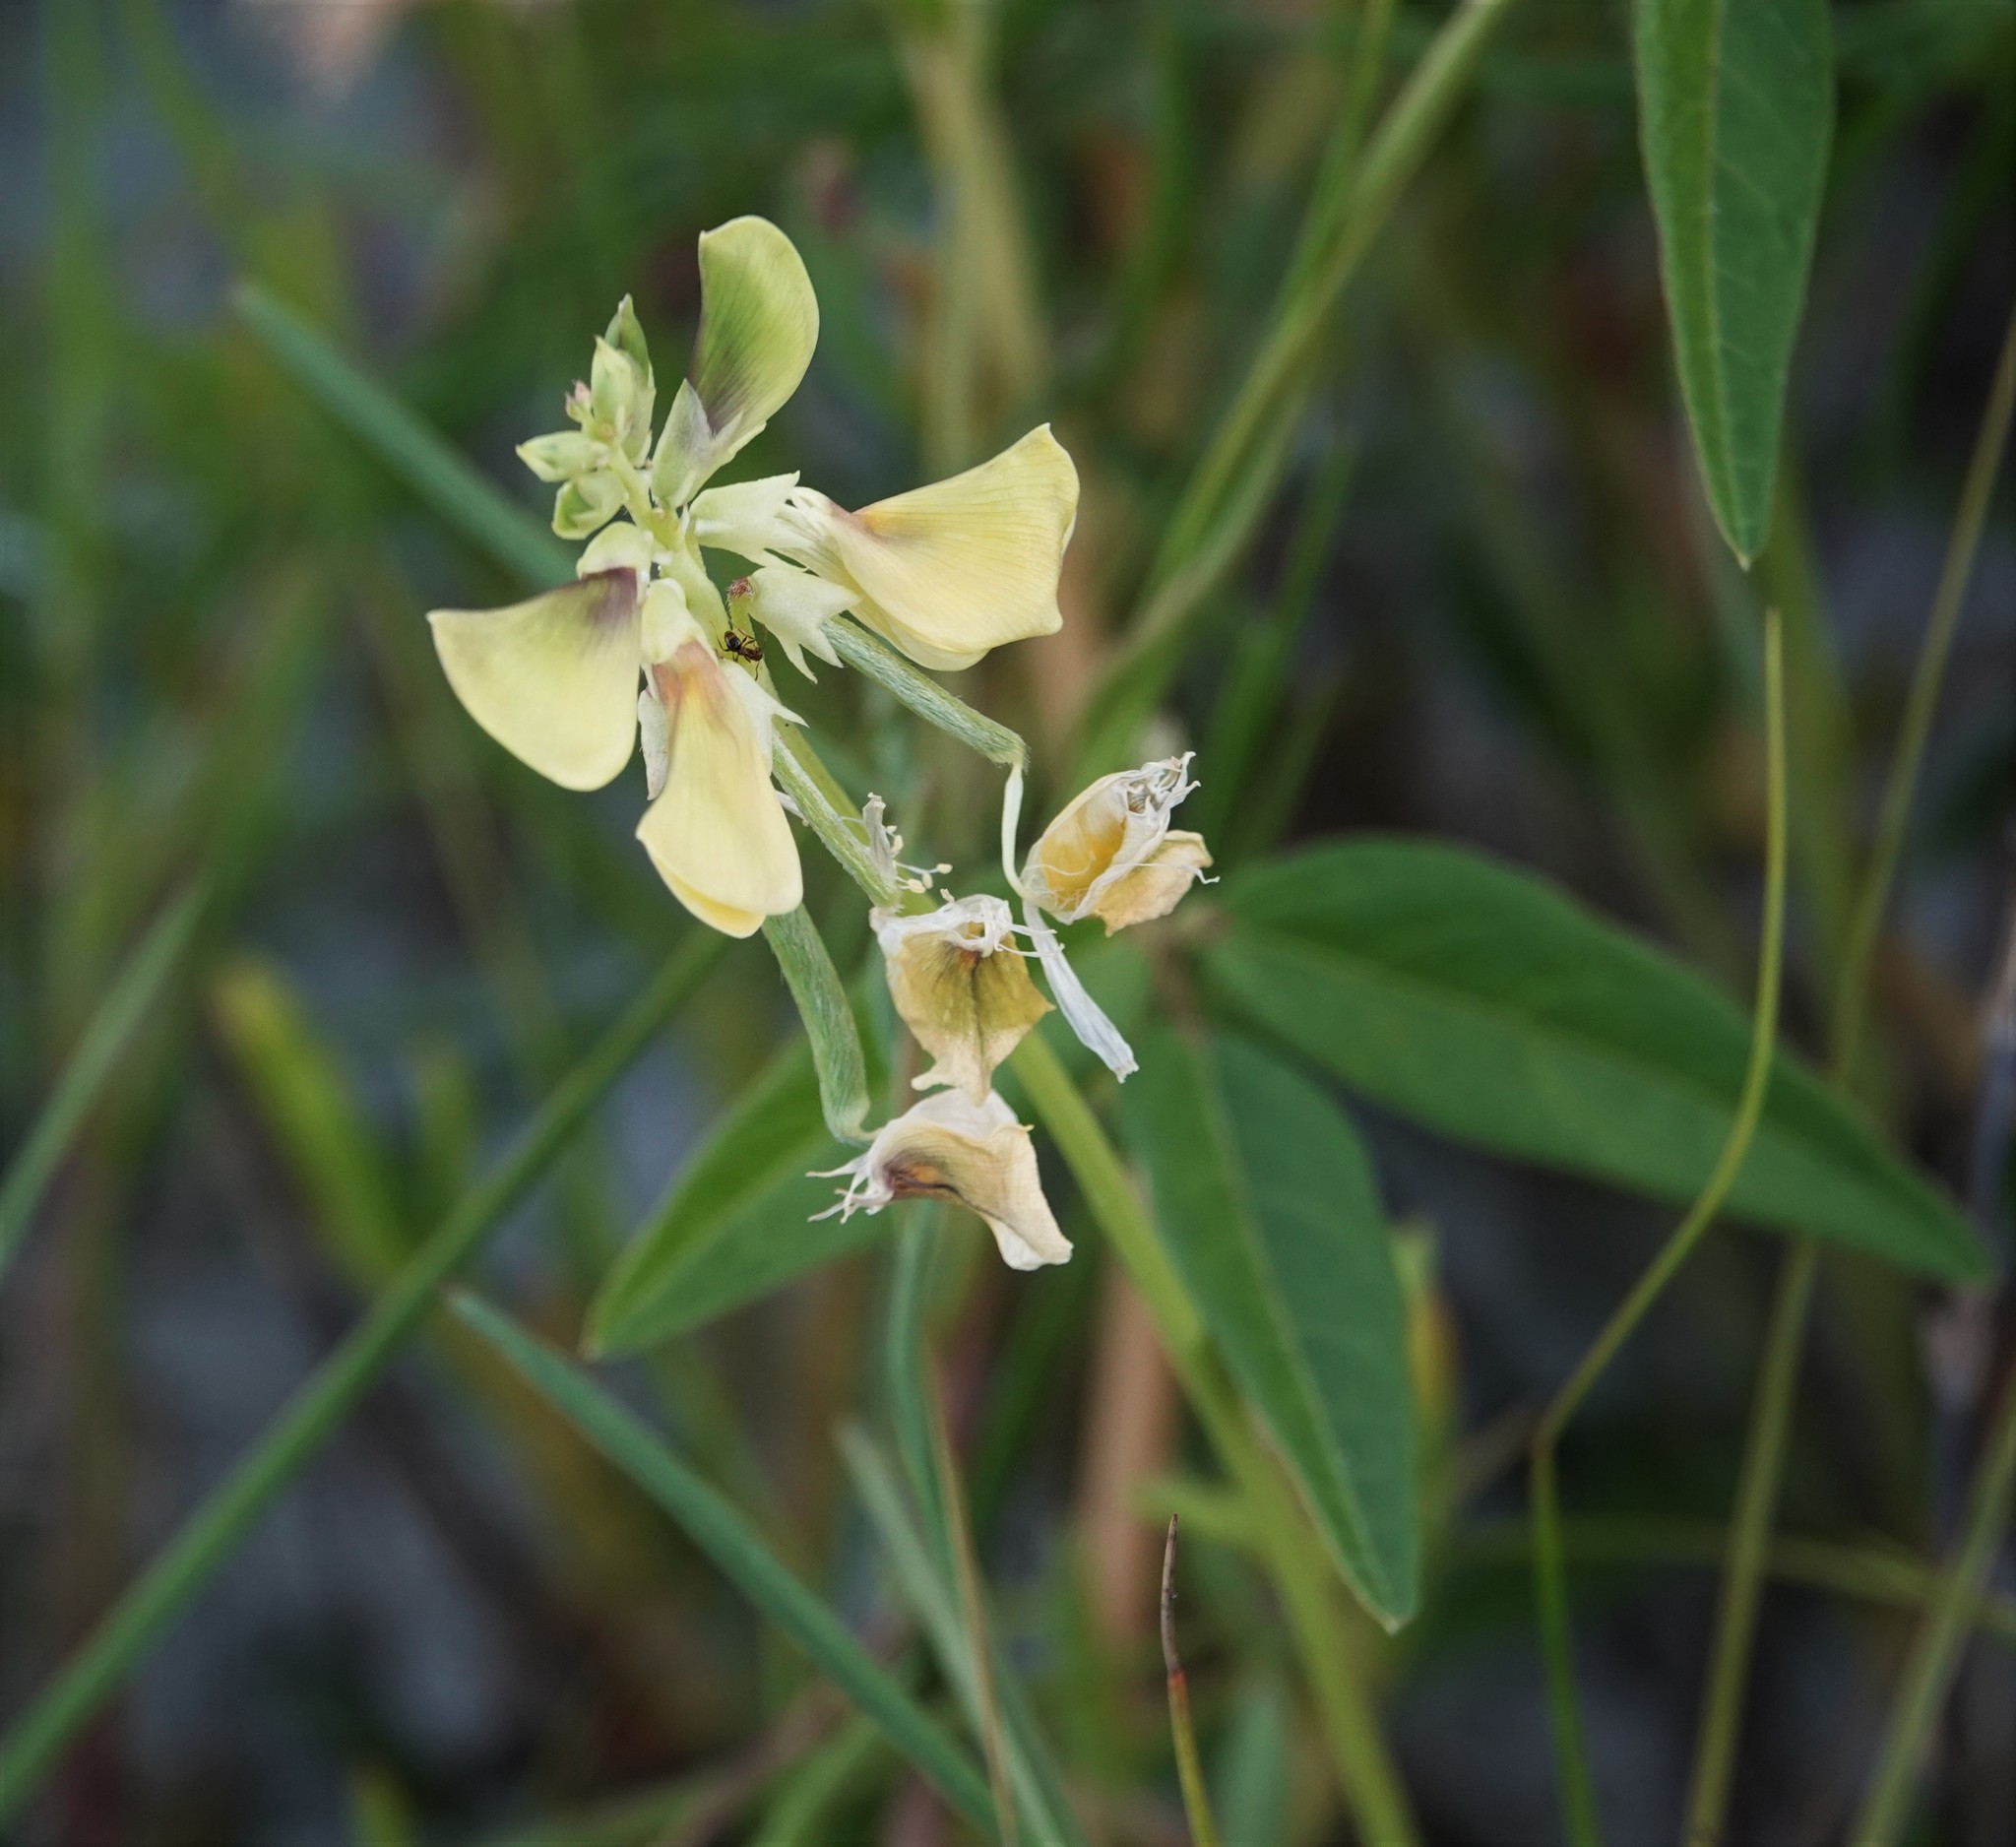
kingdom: Plantae
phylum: Tracheophyta
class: Magnoliopsida
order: Fabales
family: Fabaceae
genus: Vigna
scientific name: Vigna luteola
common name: Hairypod cowpea
